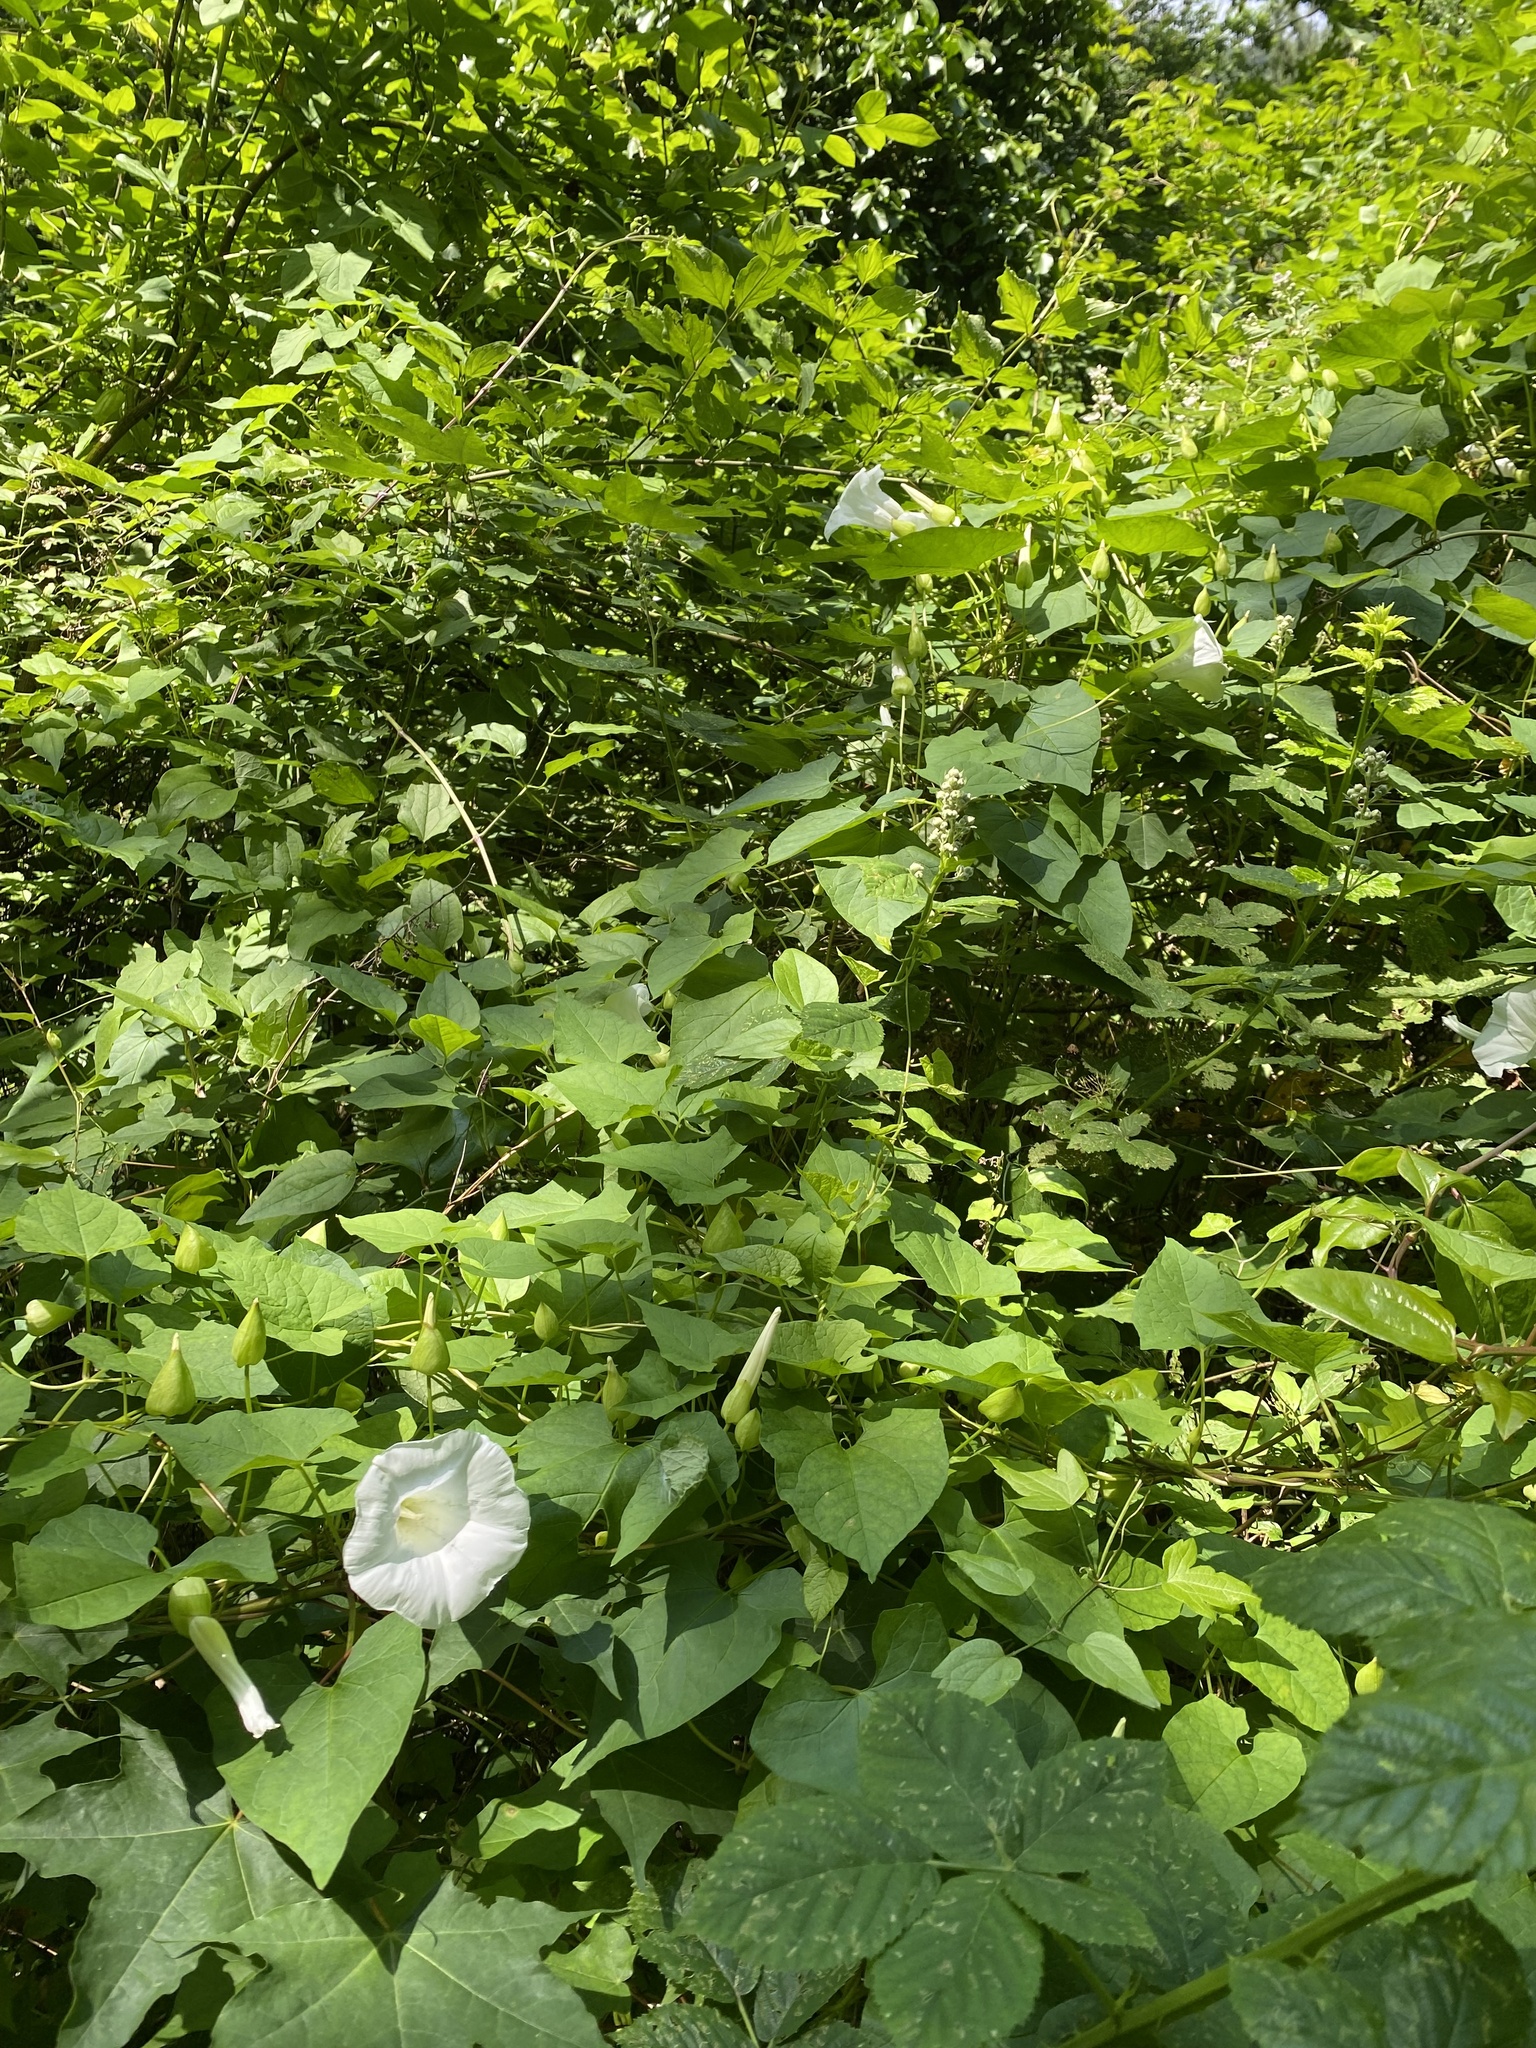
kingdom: Plantae
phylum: Tracheophyta
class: Magnoliopsida
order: Solanales
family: Convolvulaceae
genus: Calystegia
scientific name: Calystegia silvatica
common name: Large bindweed
